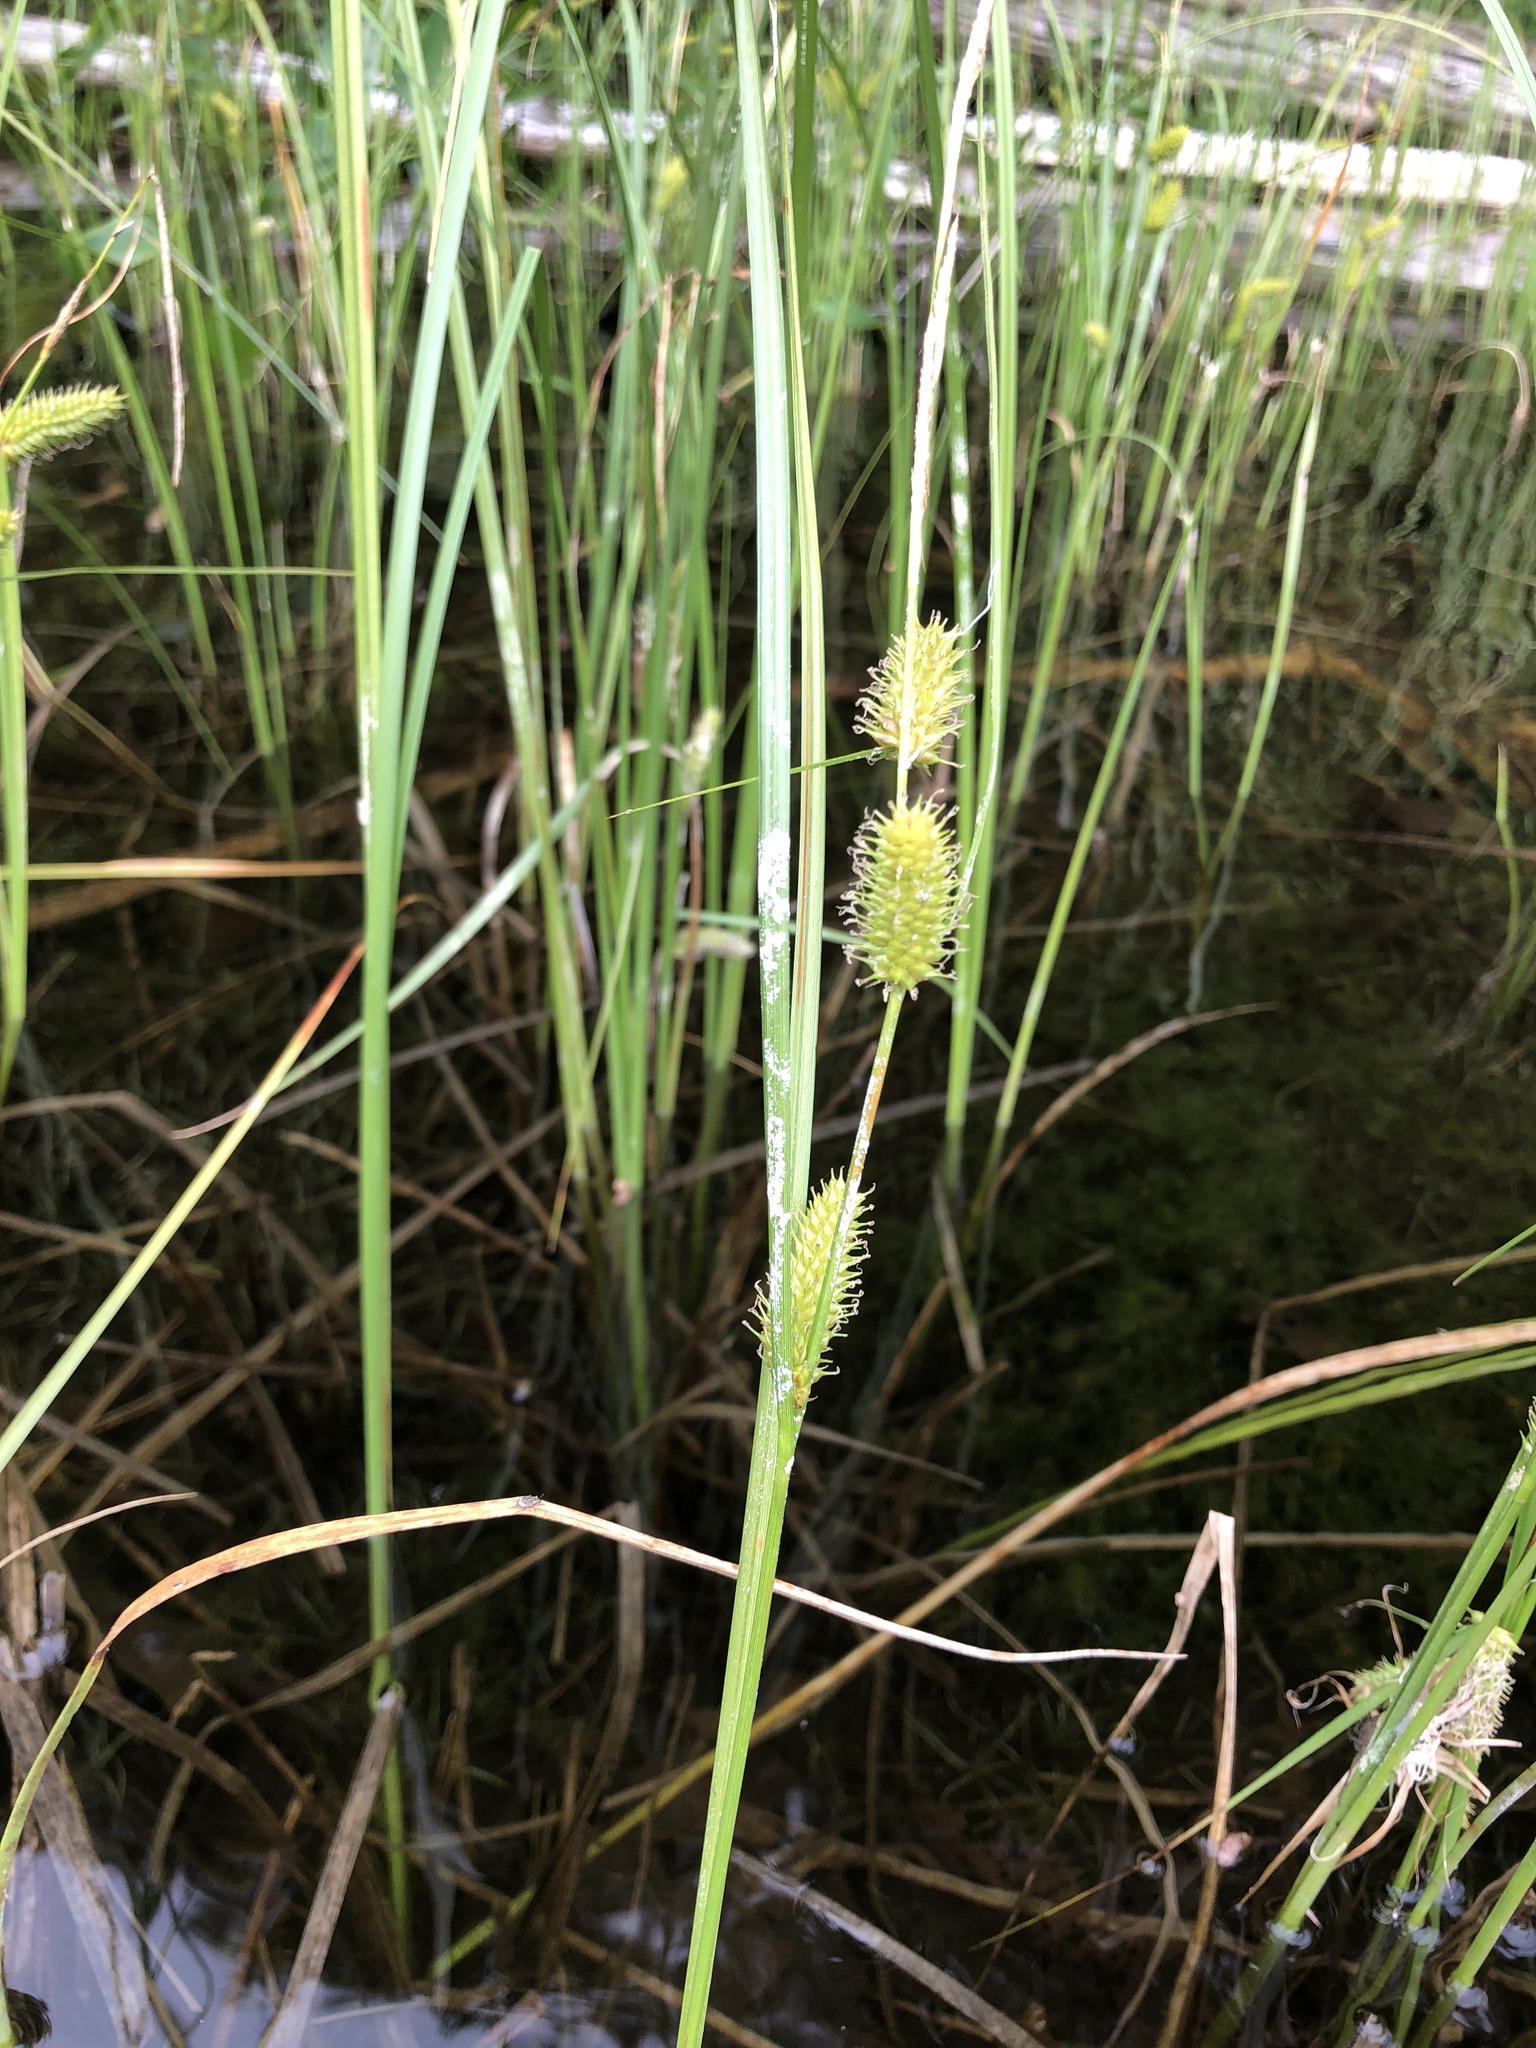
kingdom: Plantae
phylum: Tracheophyta
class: Liliopsida
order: Poales
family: Cyperaceae
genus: Carex
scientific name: Carex utriculata
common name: Beaked sedge
